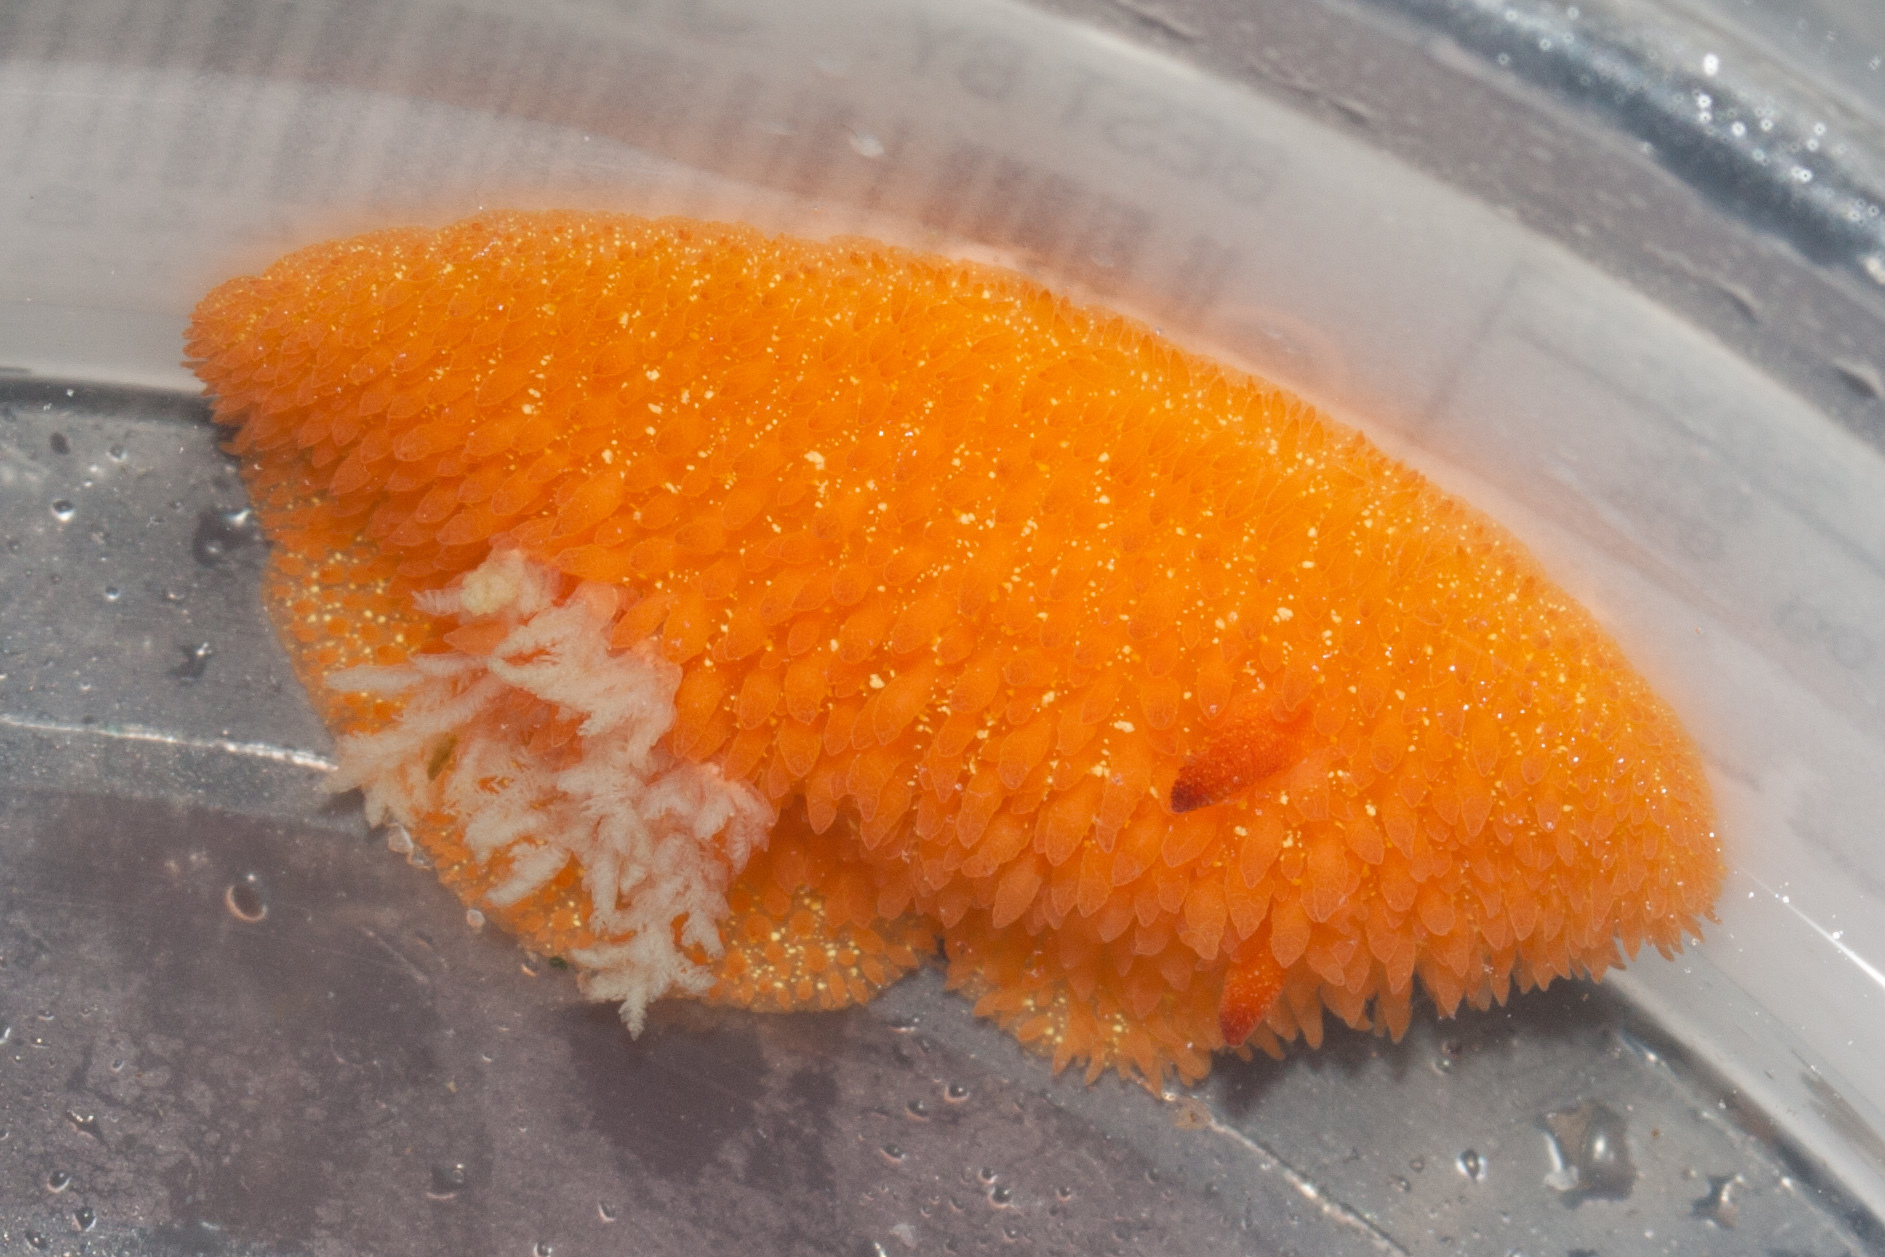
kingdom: Animalia
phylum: Mollusca
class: Gastropoda
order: Nudibranchia
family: Onchidorididae
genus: Acanthodoris
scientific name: Acanthodoris lutea
